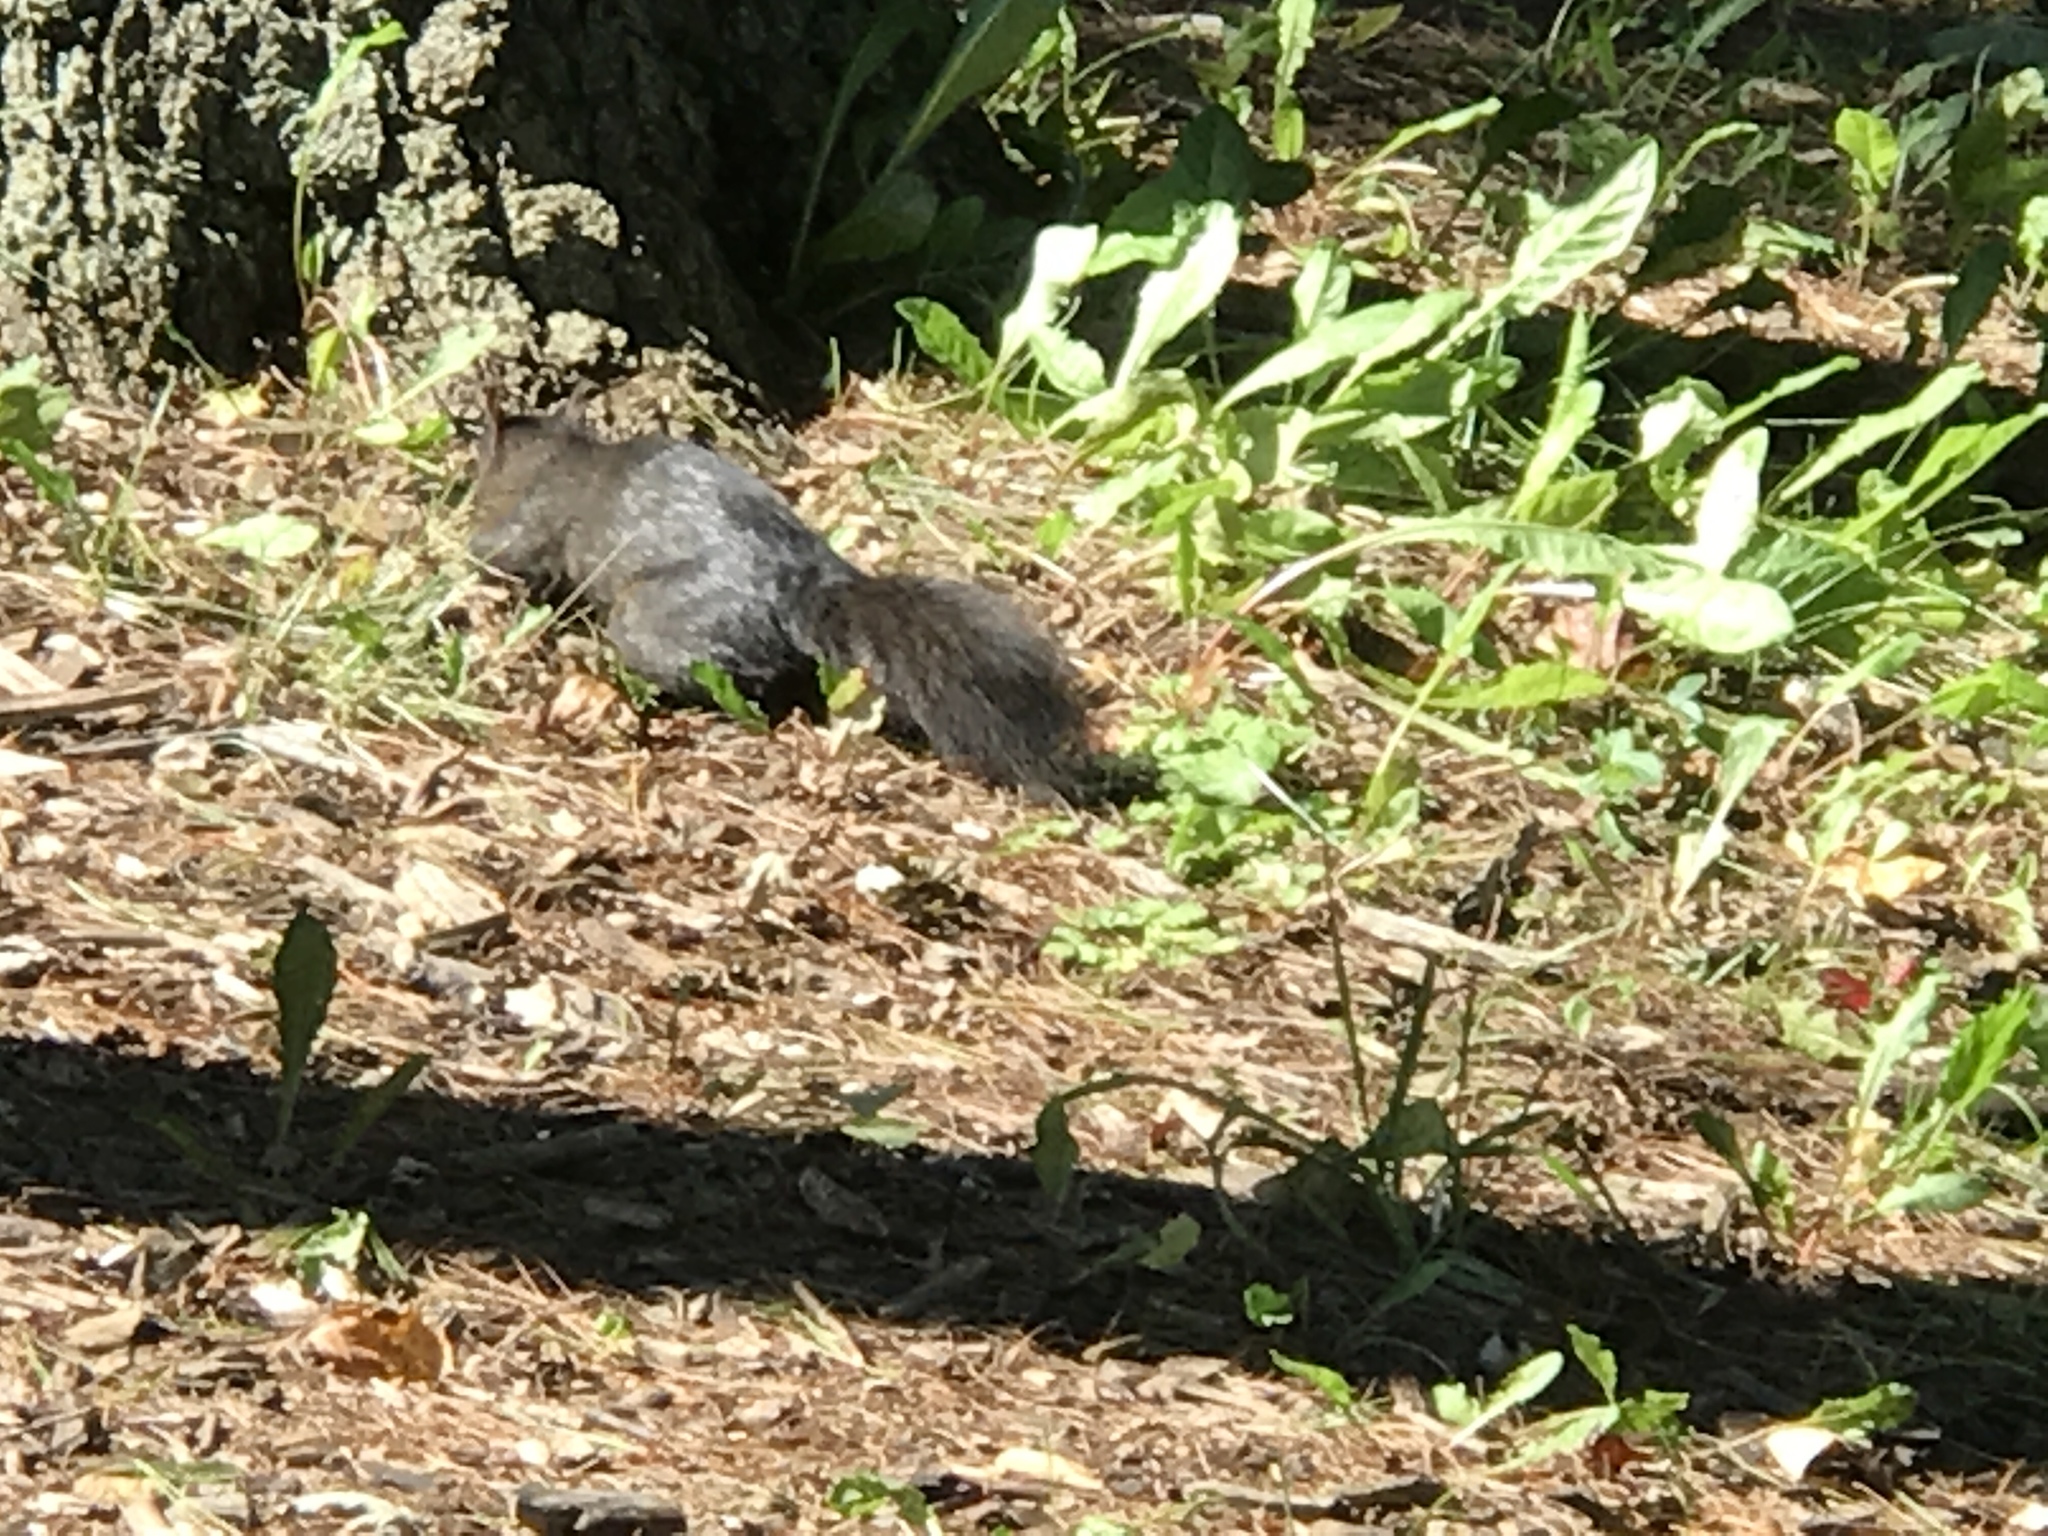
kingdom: Animalia
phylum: Chordata
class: Mammalia
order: Rodentia
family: Sciuridae
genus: Sciurus
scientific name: Sciurus carolinensis
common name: Eastern gray squirrel
